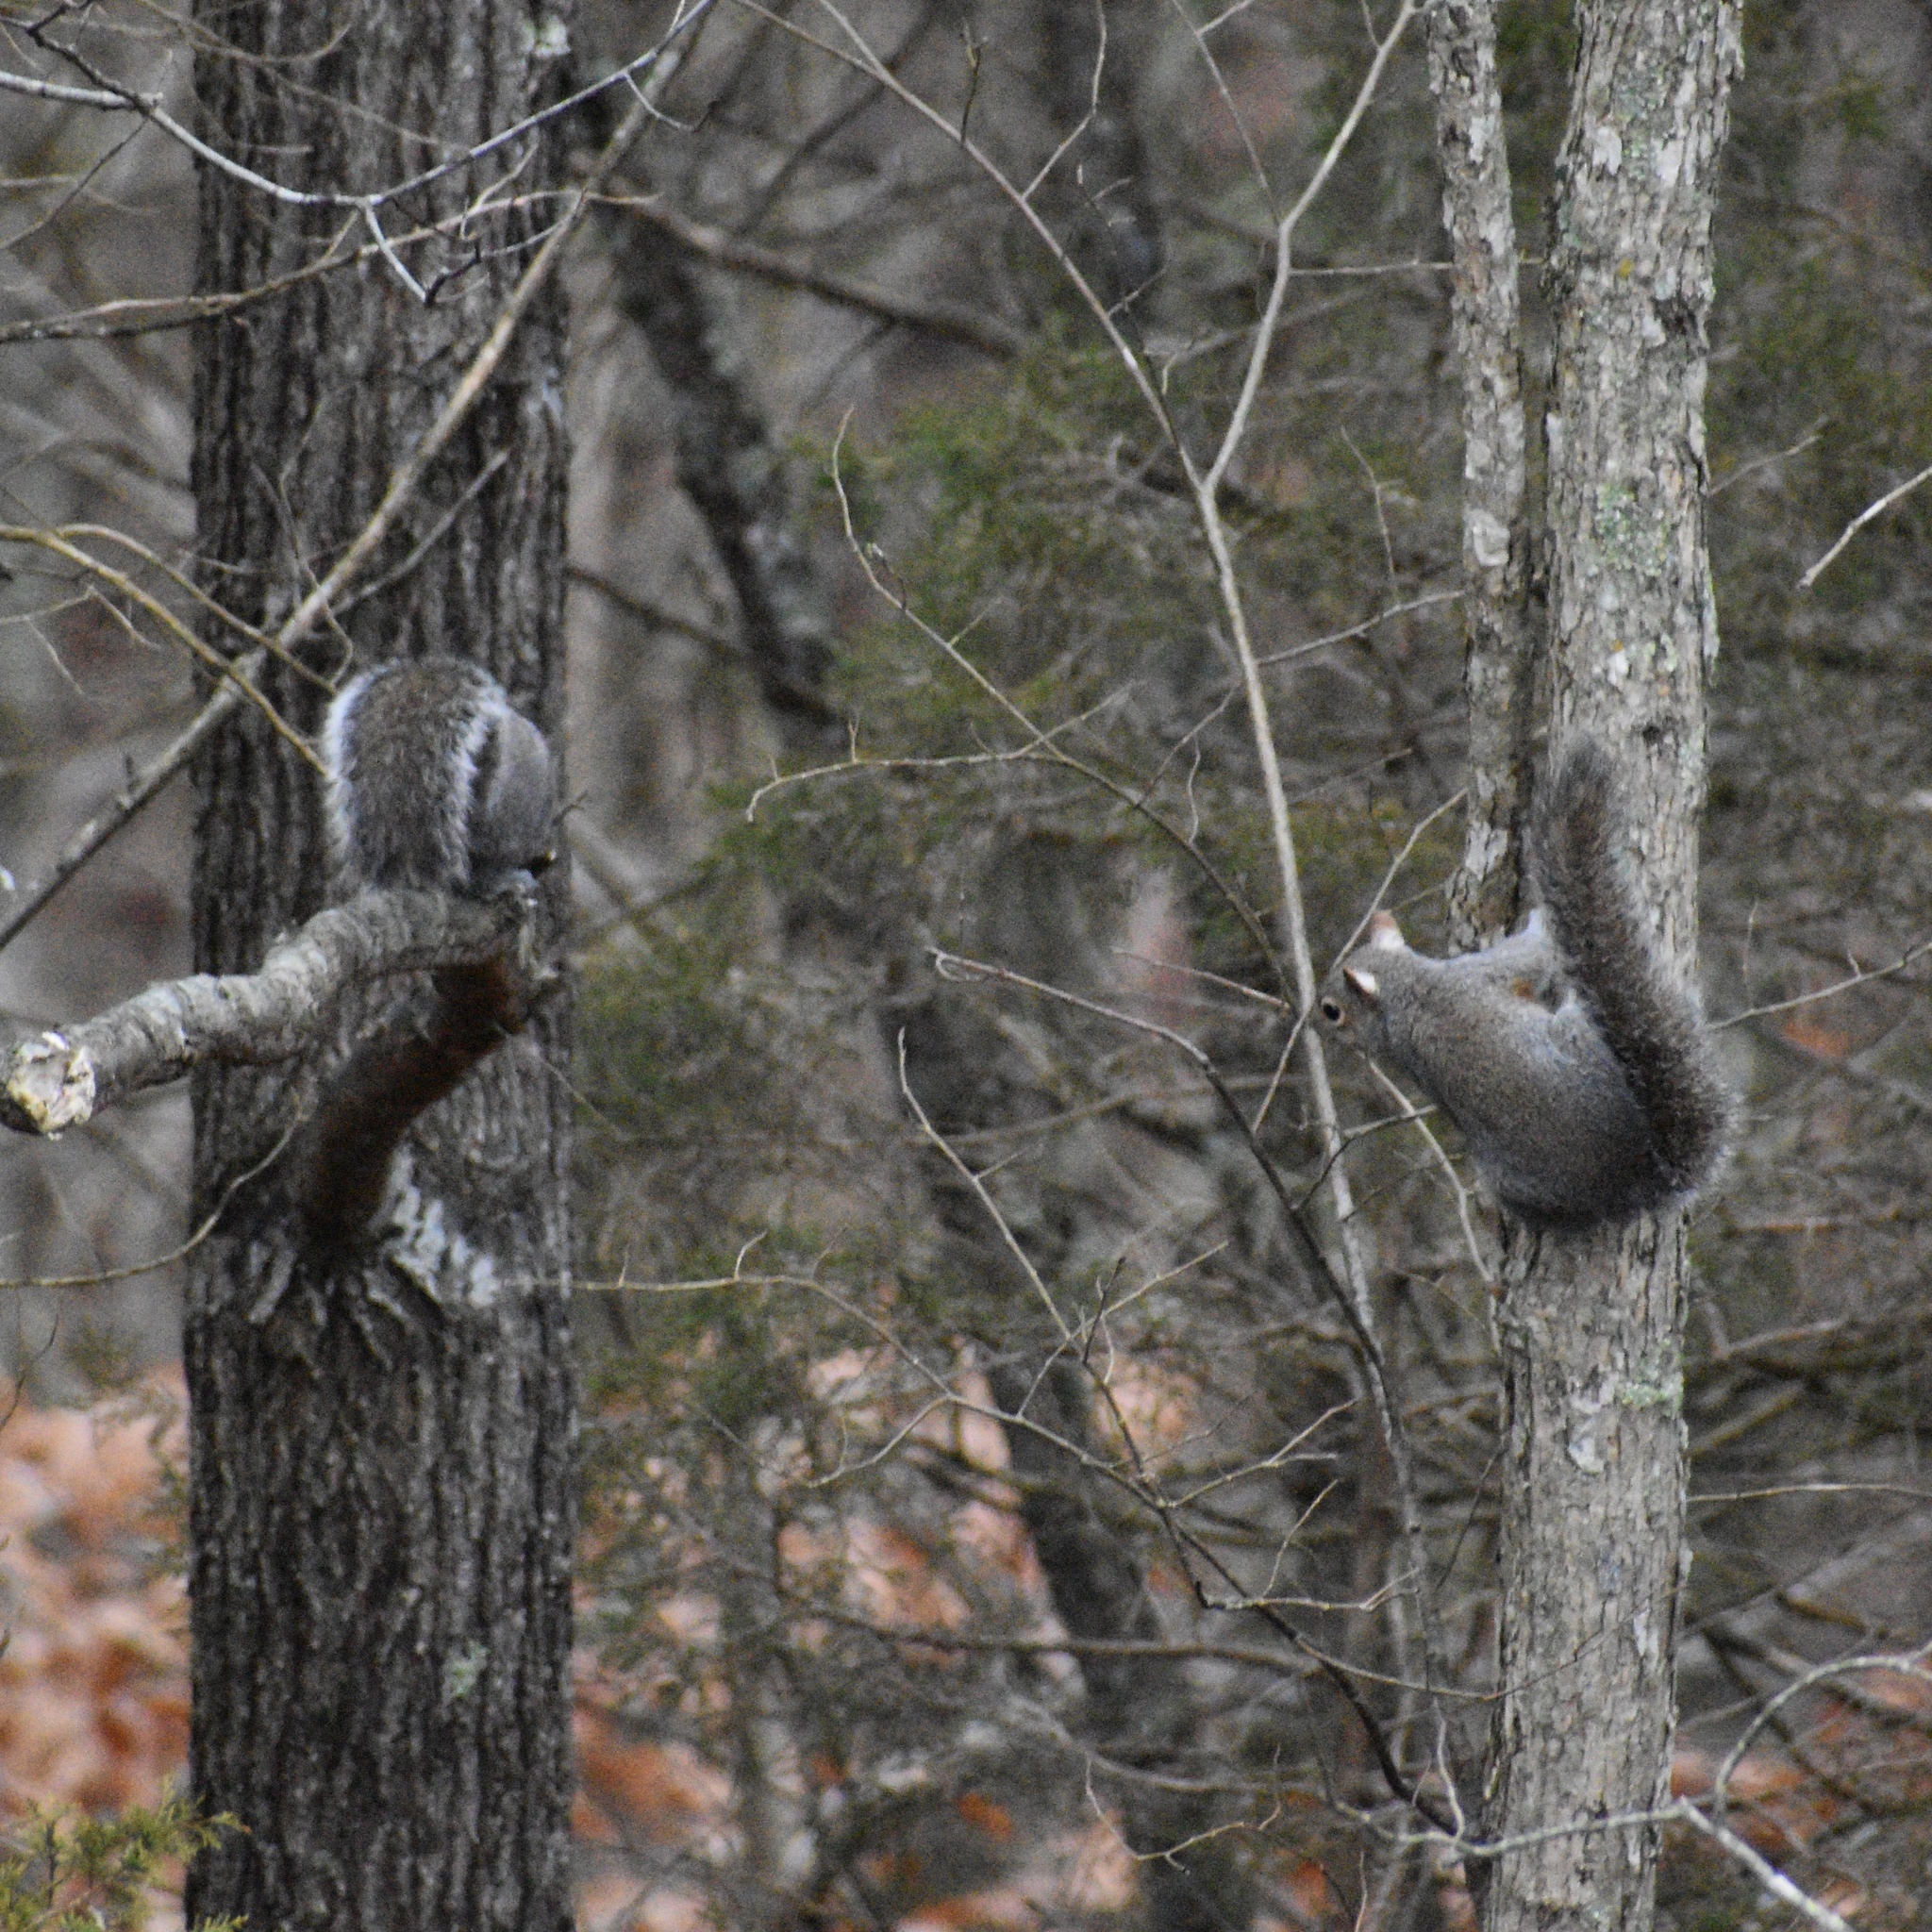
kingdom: Animalia
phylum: Chordata
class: Mammalia
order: Rodentia
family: Sciuridae
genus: Sciurus
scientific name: Sciurus carolinensis
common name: Eastern gray squirrel
